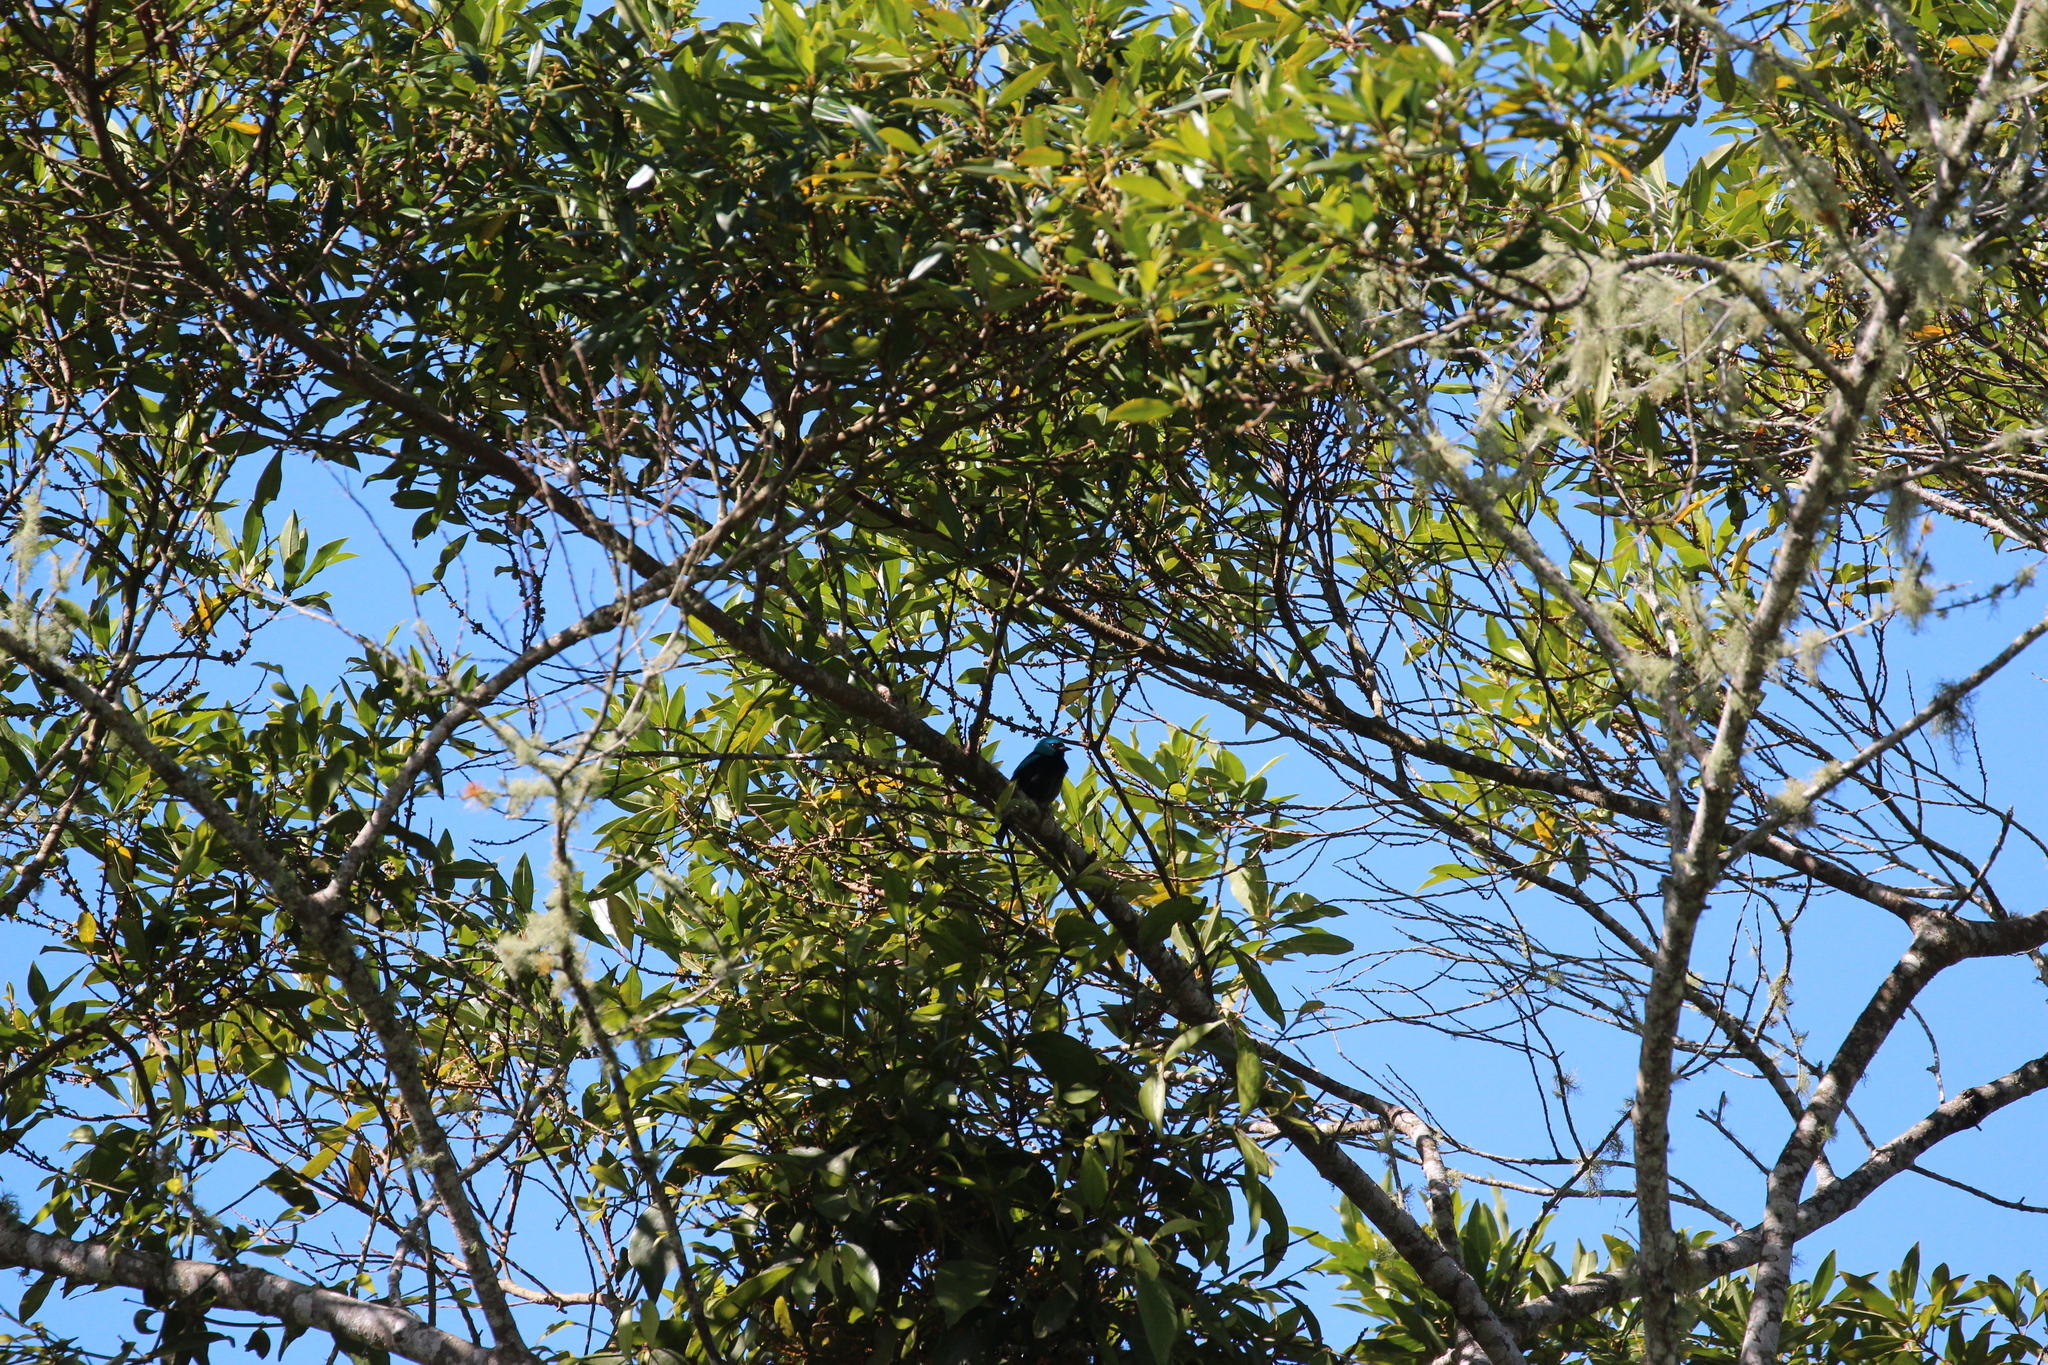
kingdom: Animalia
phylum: Chordata
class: Aves
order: Passeriformes
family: Thraupidae
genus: Dacnis
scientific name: Dacnis venusta
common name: Scarlet-thighed dacnis
